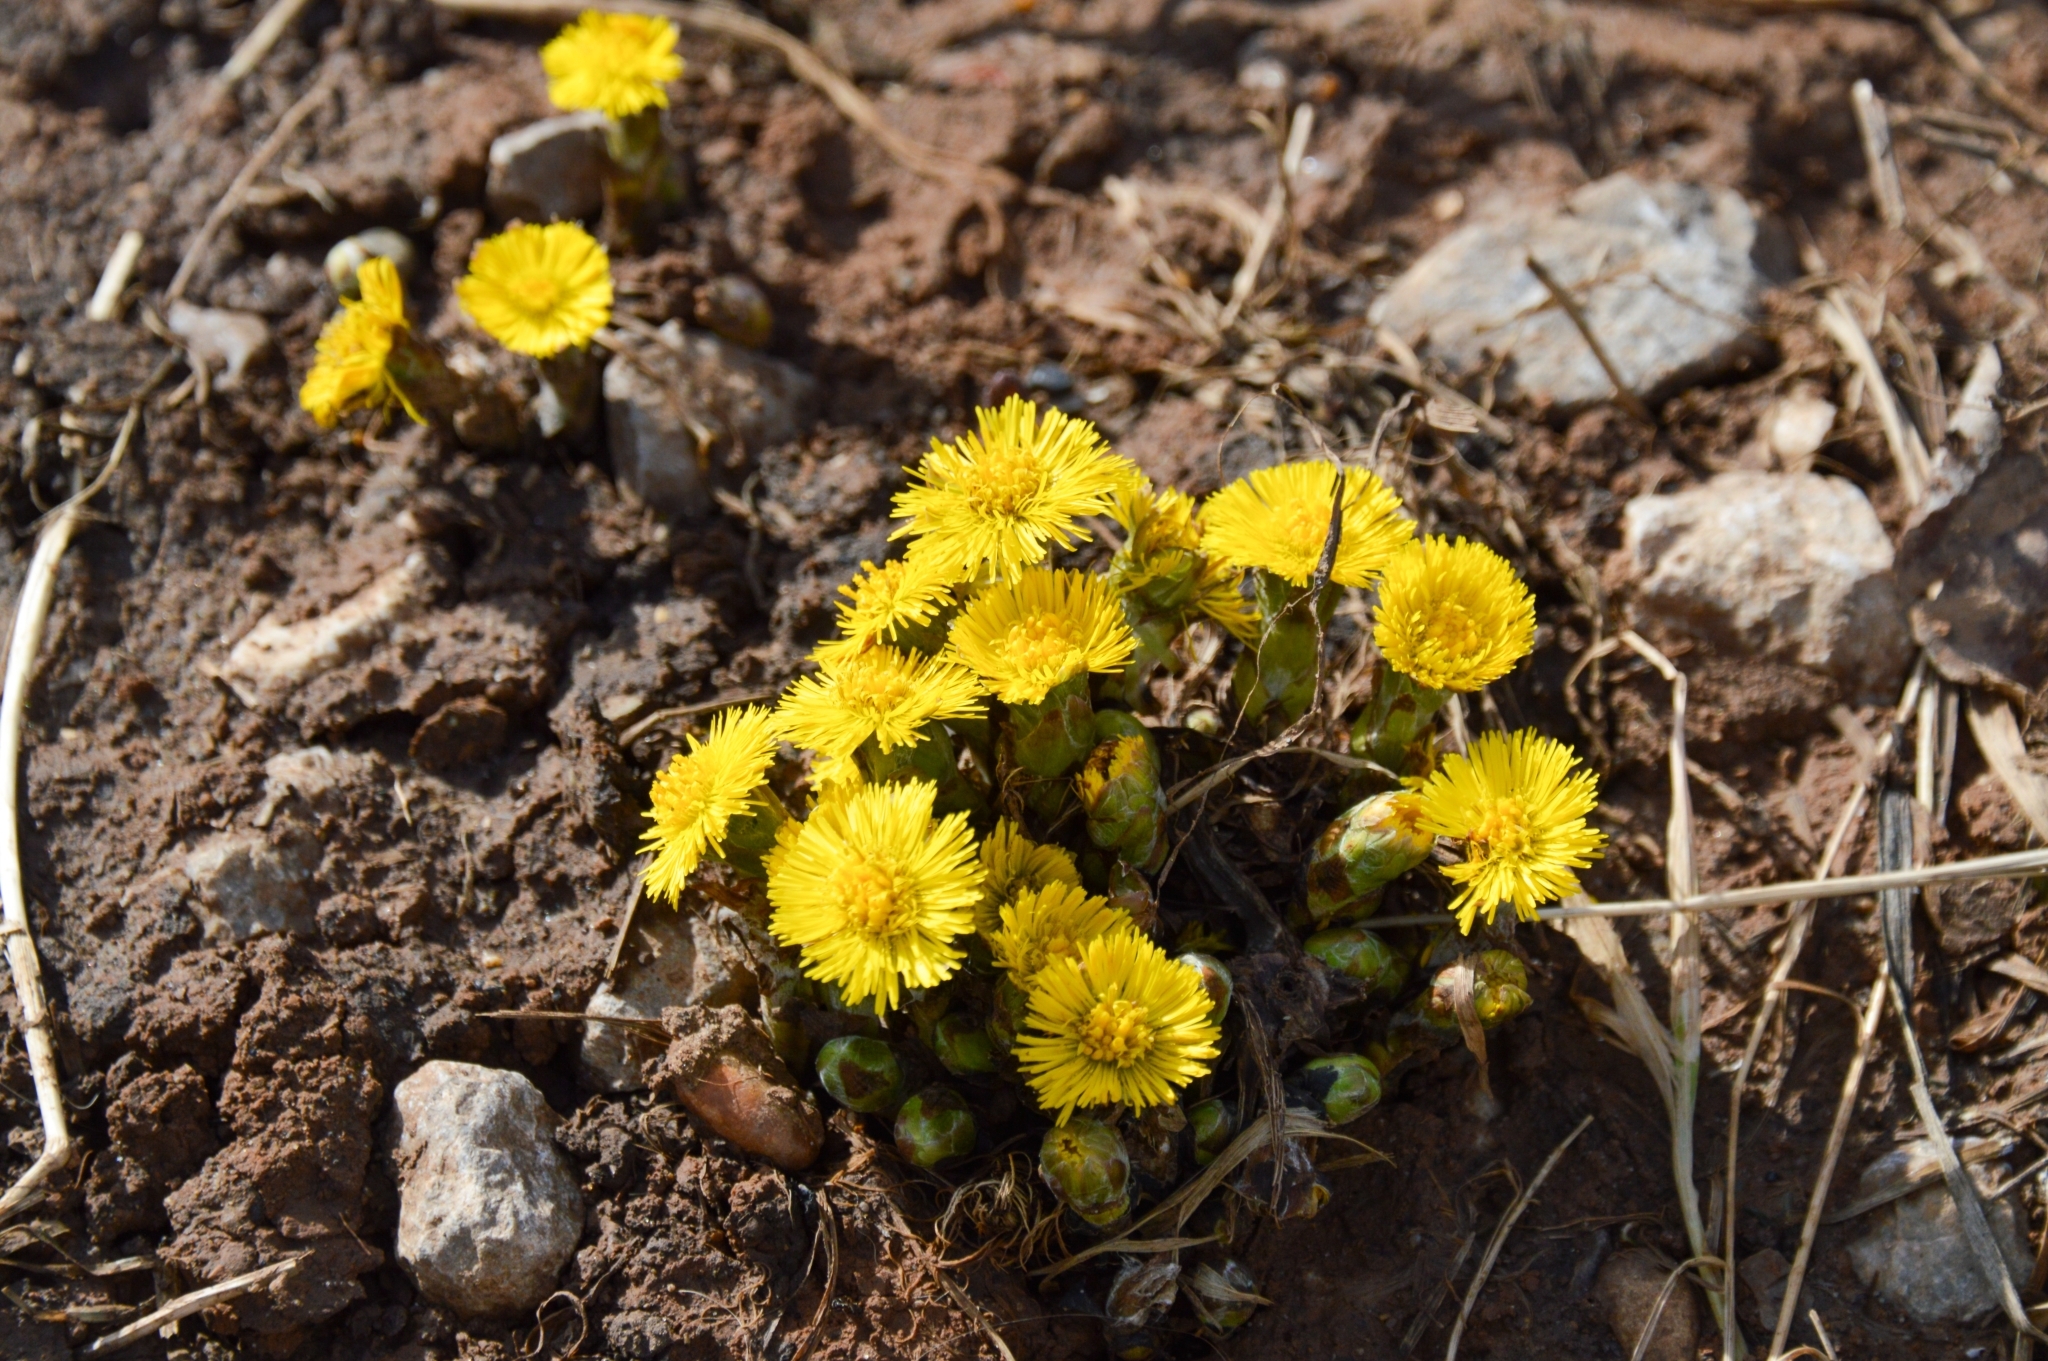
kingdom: Plantae
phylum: Tracheophyta
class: Magnoliopsida
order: Asterales
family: Asteraceae
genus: Tussilago
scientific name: Tussilago farfara
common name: Coltsfoot
